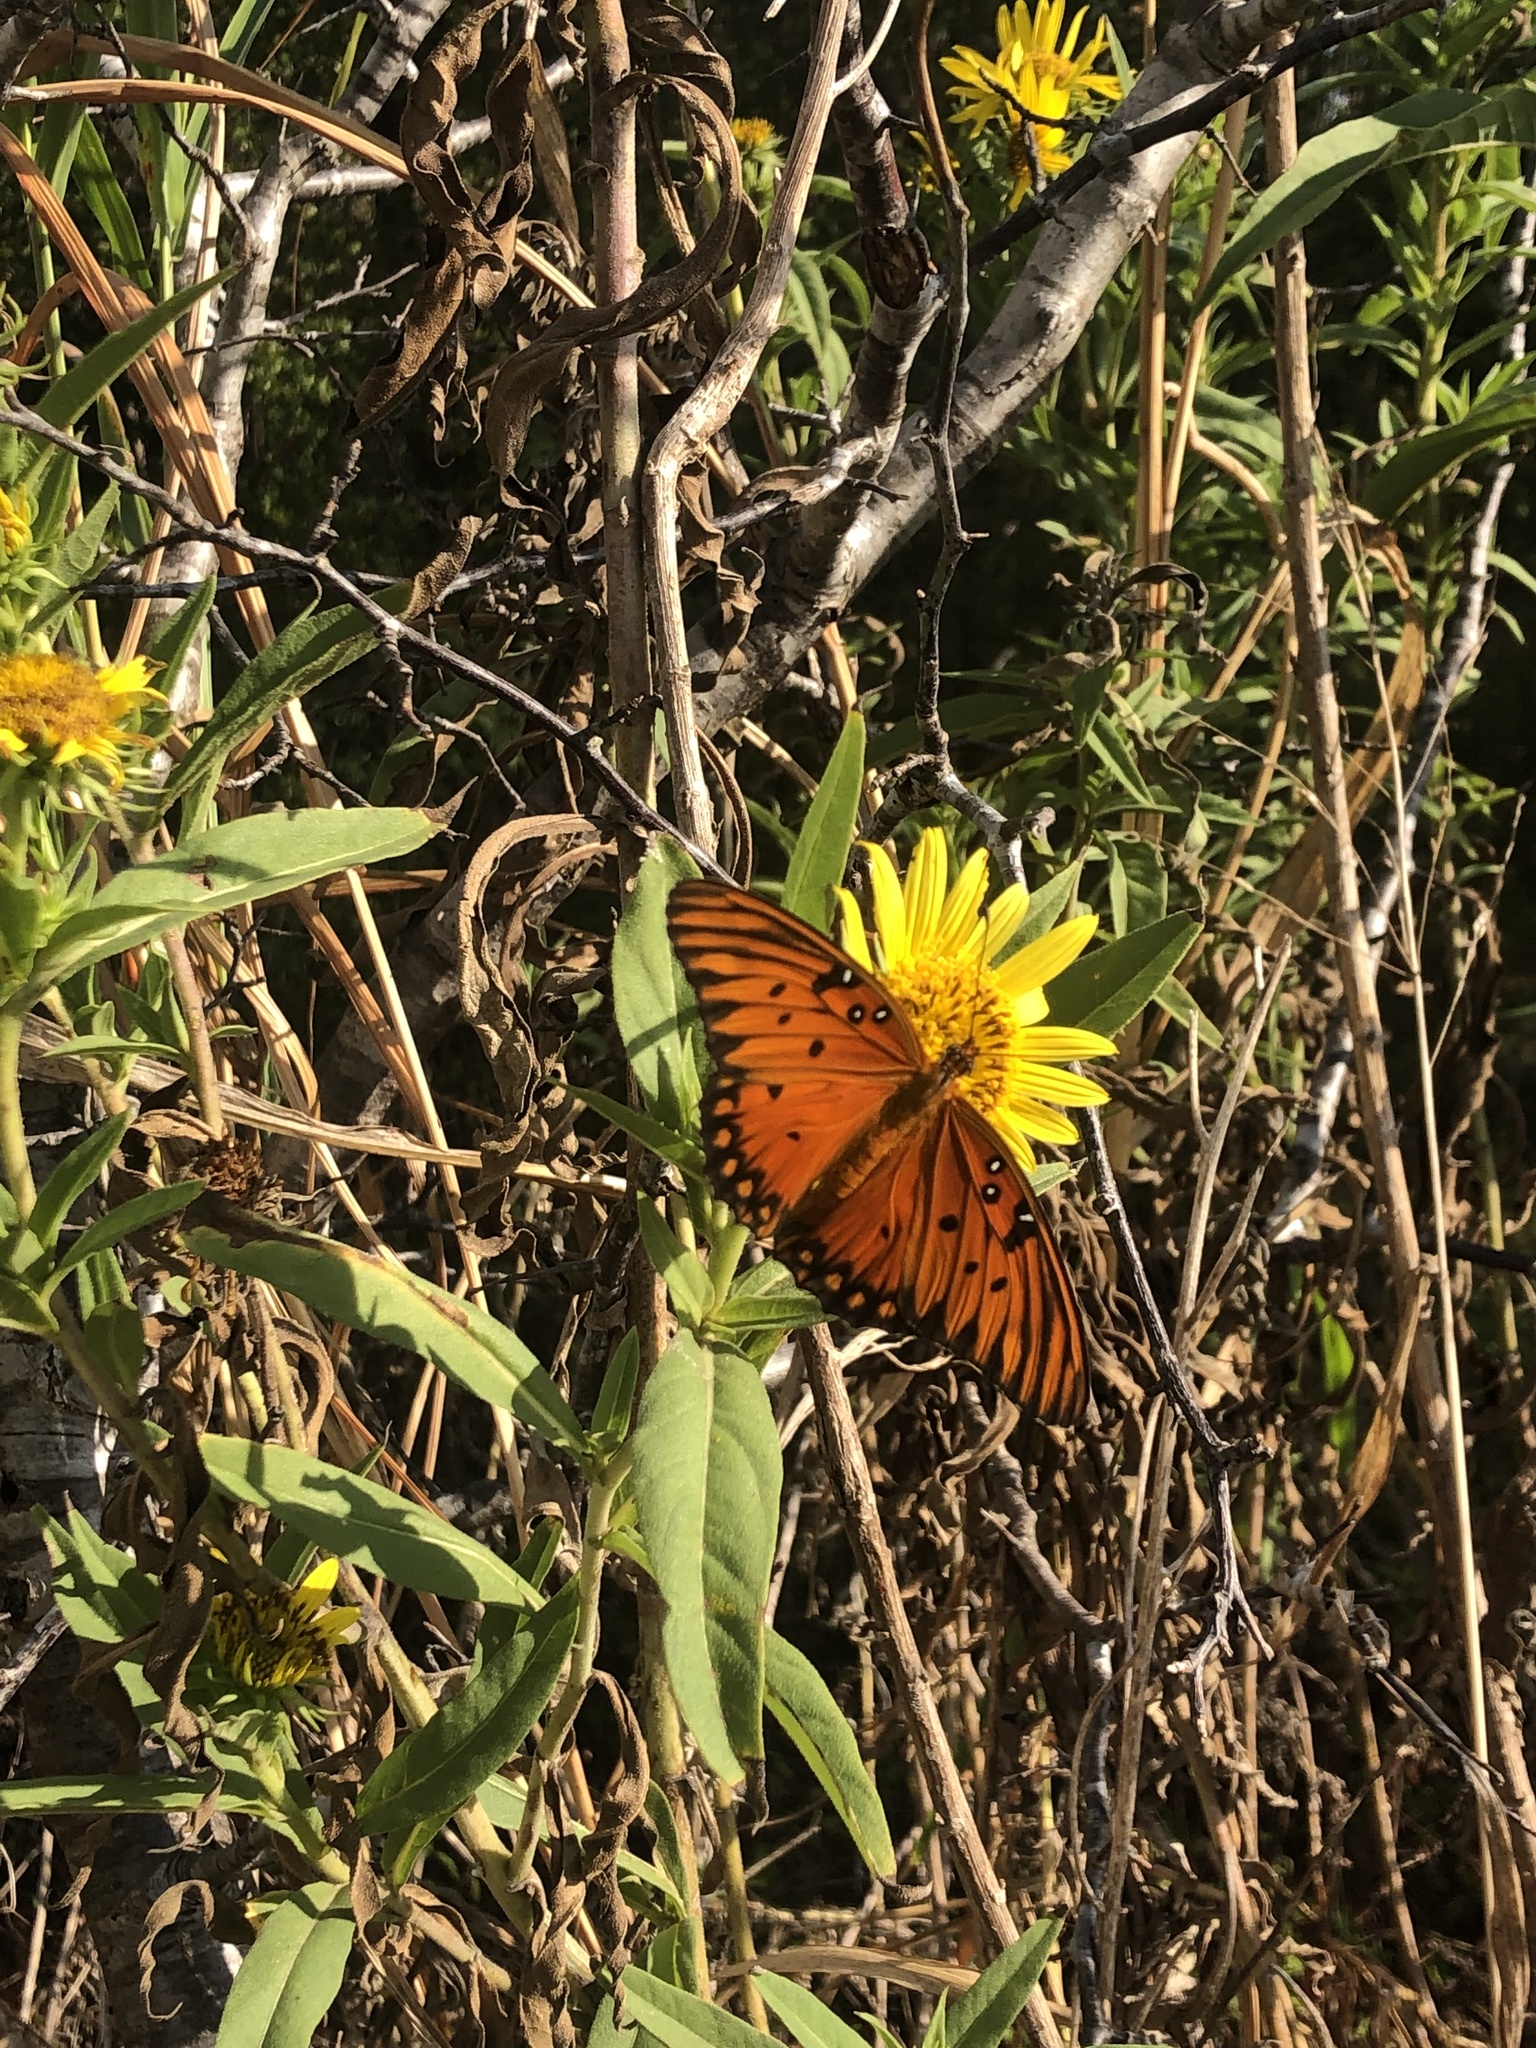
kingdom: Animalia
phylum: Arthropoda
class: Insecta
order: Lepidoptera
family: Nymphalidae
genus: Dione
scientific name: Dione vanillae
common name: Gulf fritillary
